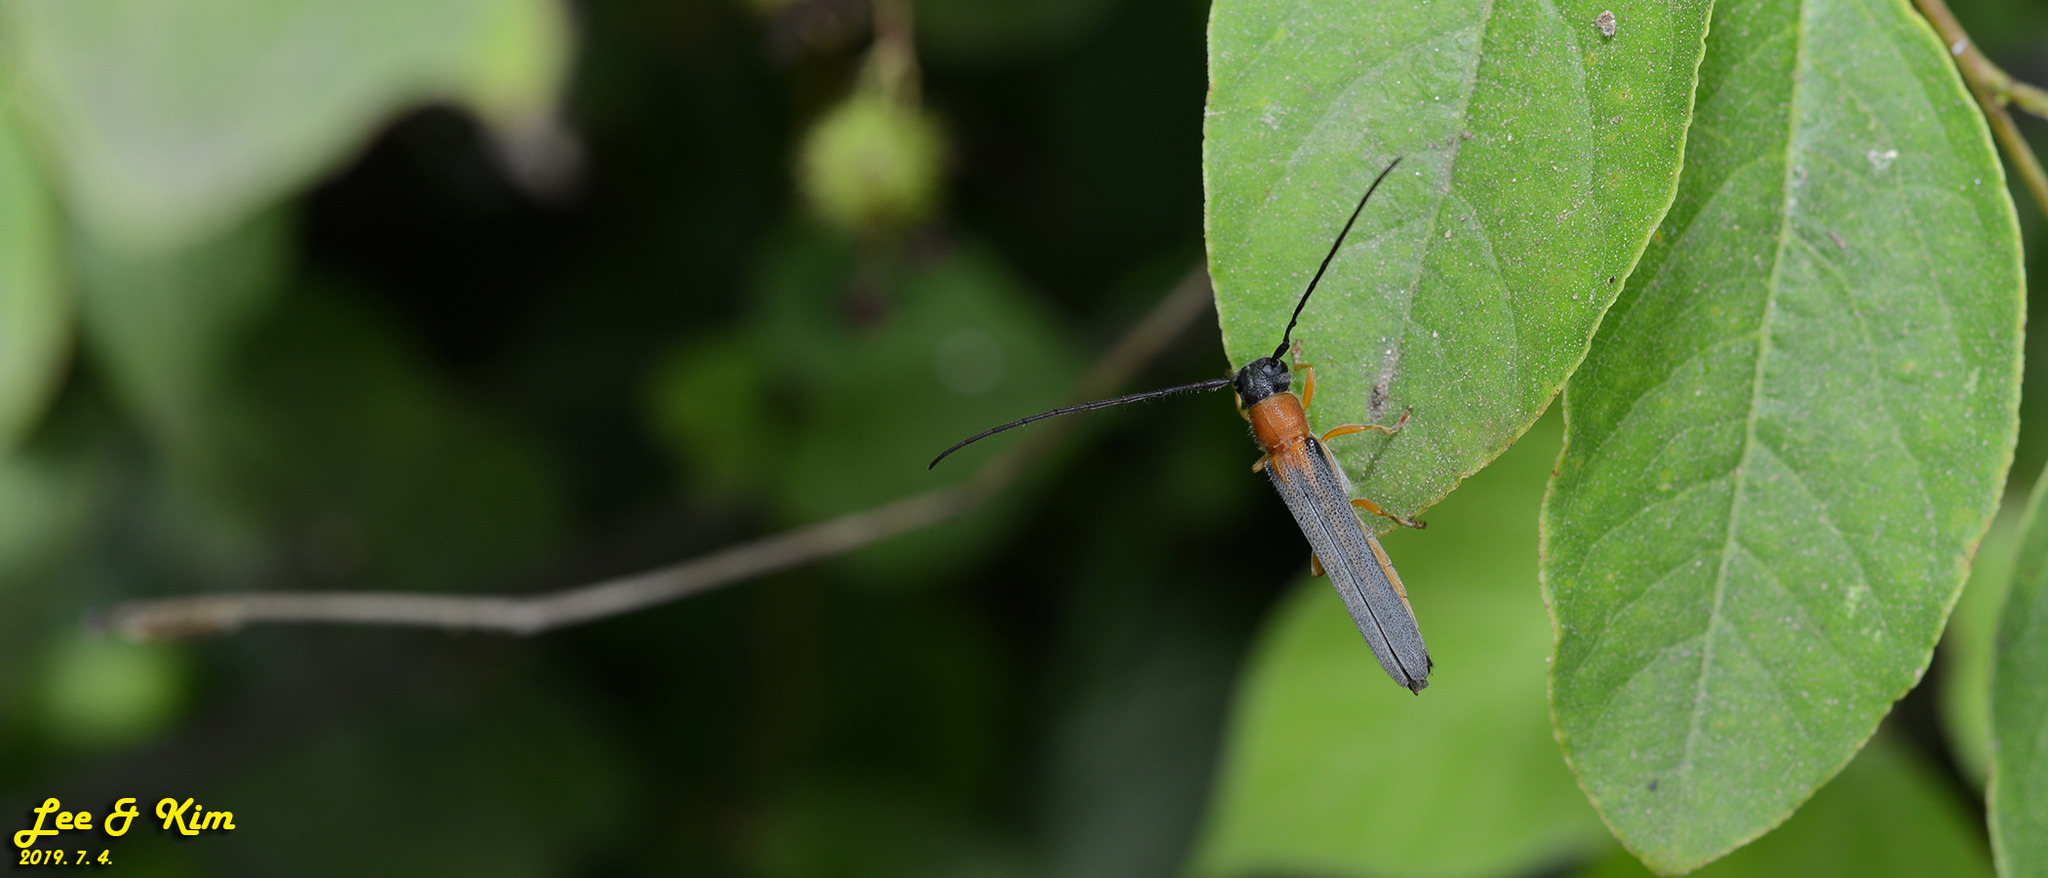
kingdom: Animalia
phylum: Arthropoda
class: Insecta
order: Coleoptera
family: Cerambycidae
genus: Oberea
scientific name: Oberea vittata
